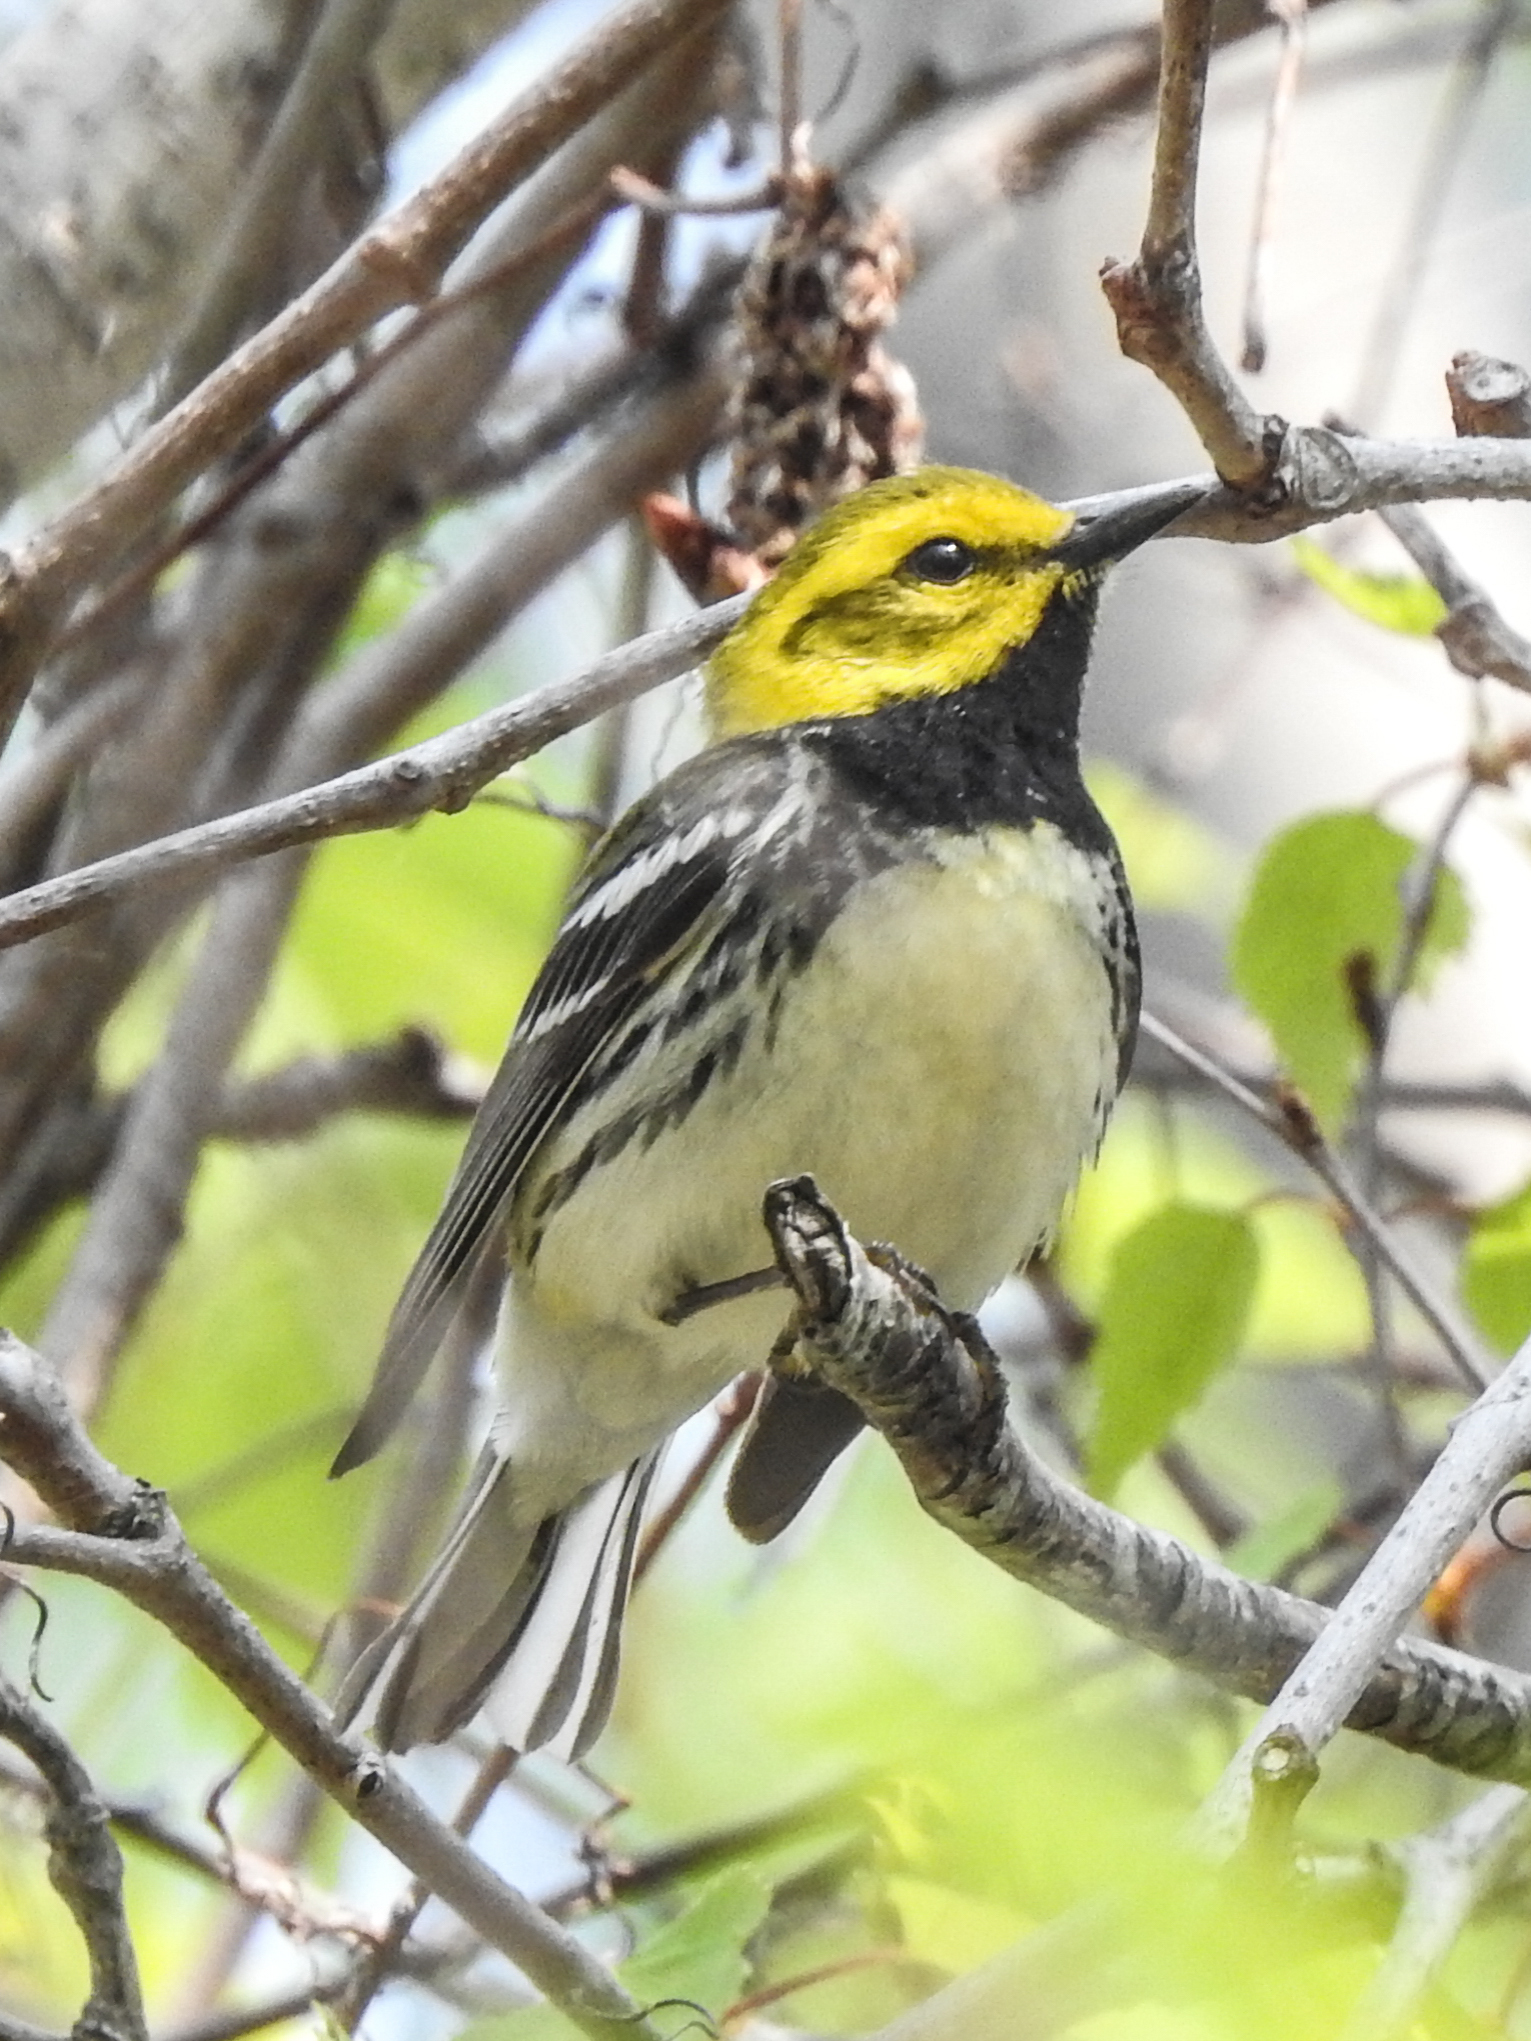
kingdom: Animalia
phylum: Chordata
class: Aves
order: Passeriformes
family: Parulidae
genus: Setophaga
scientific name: Setophaga virens
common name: Black-throated green warbler
